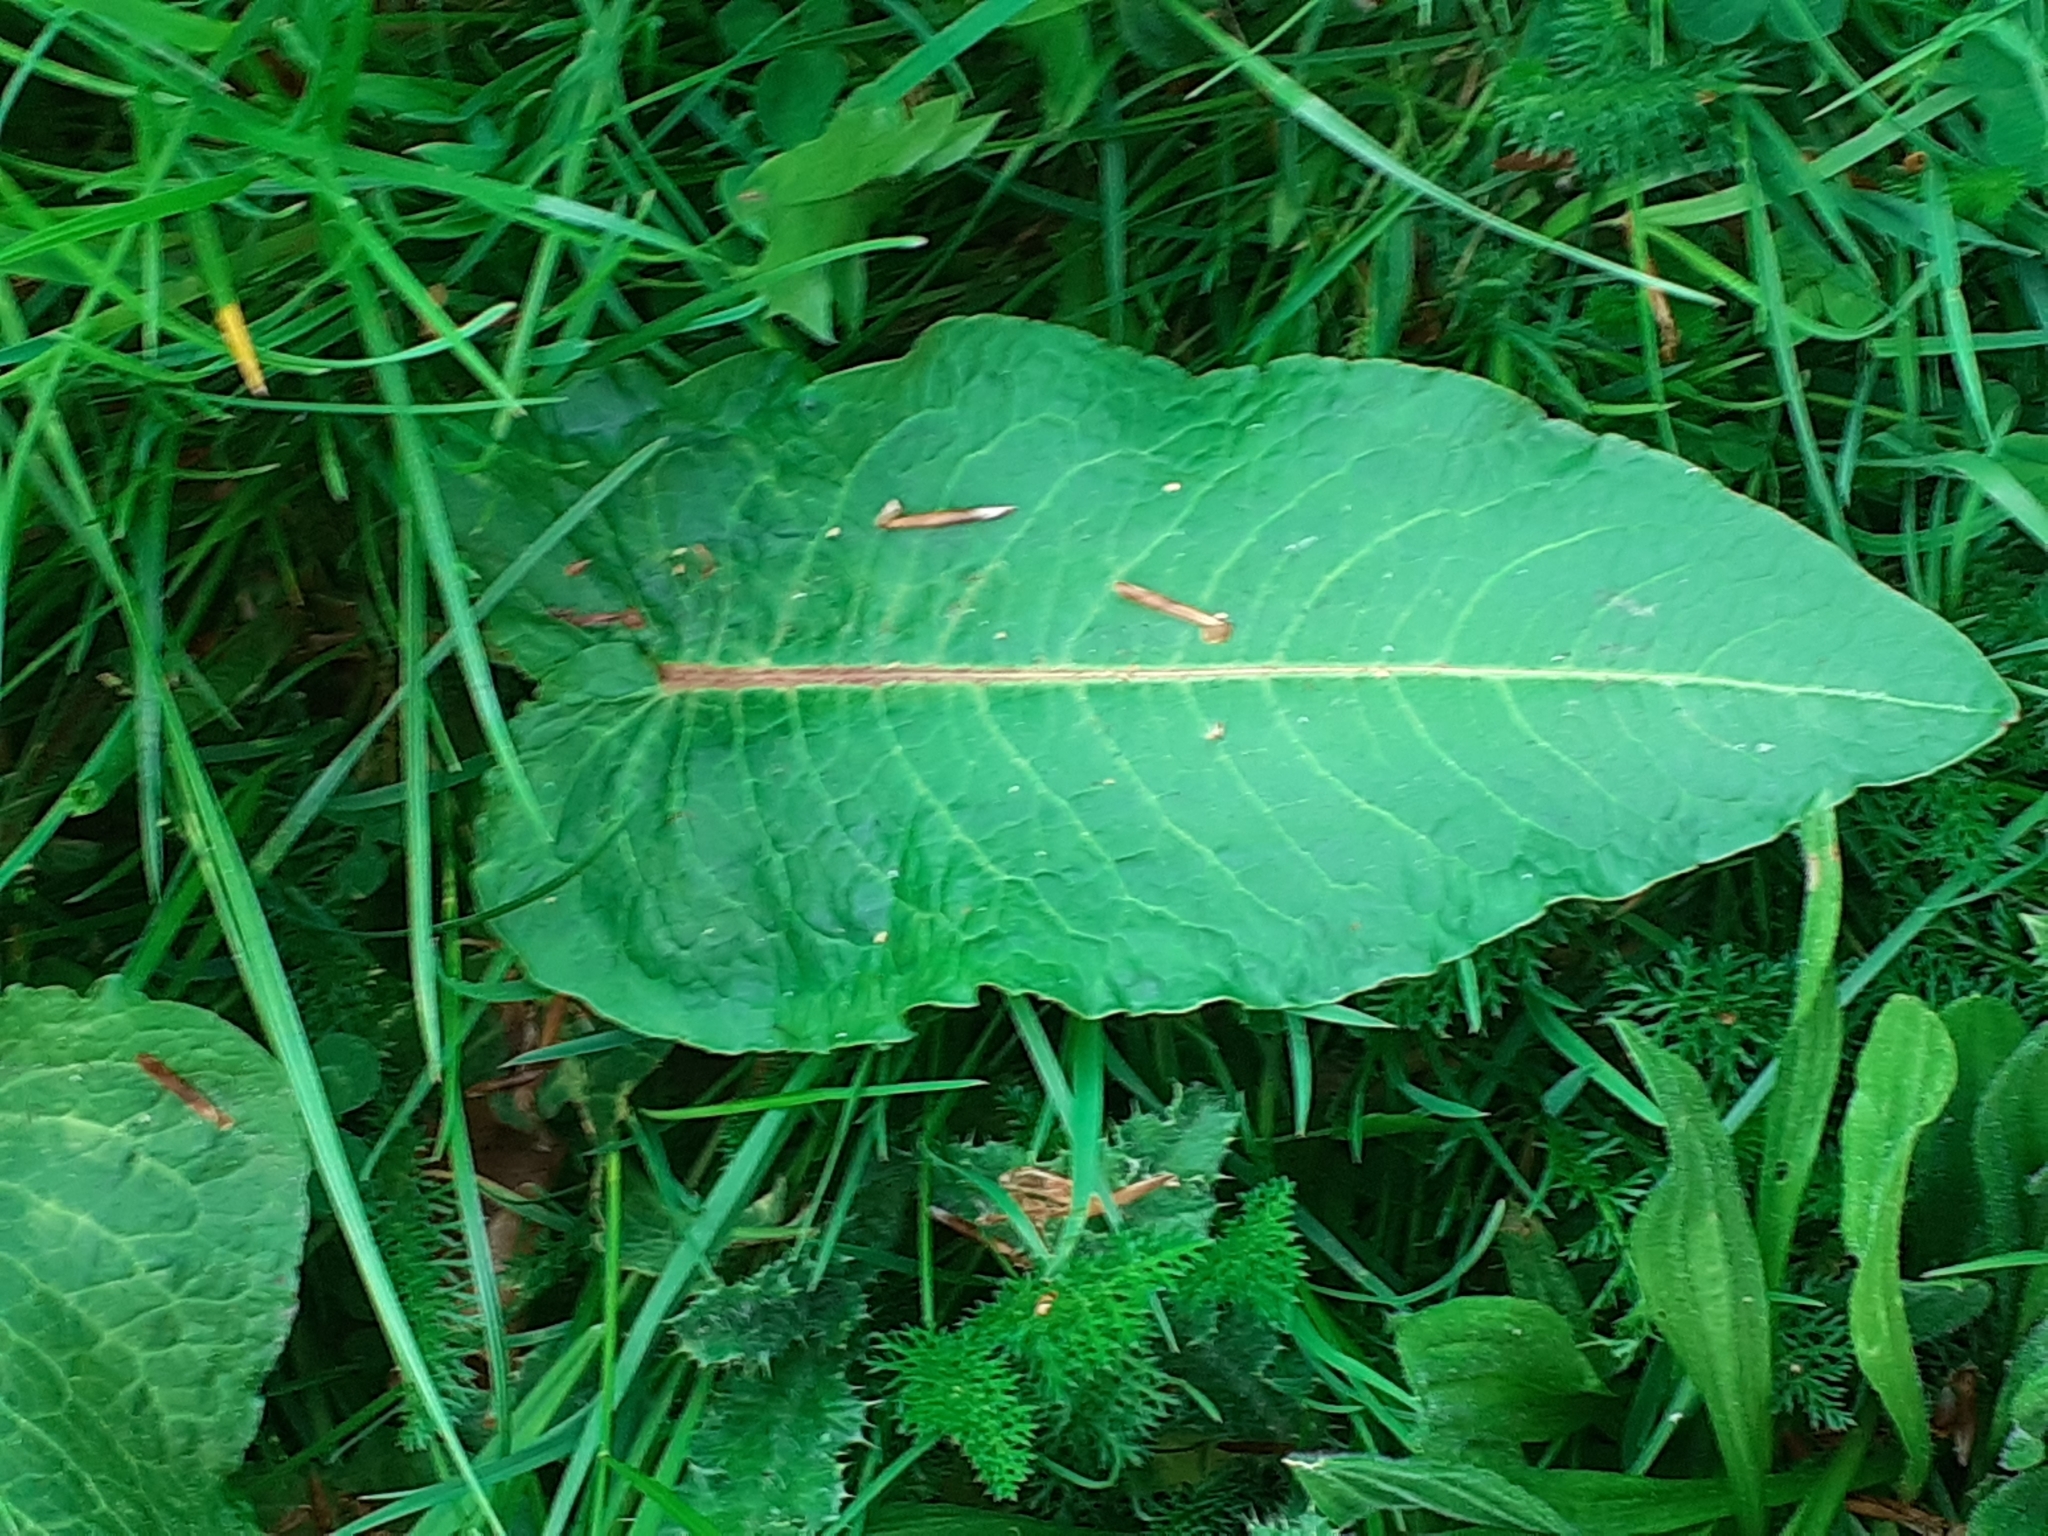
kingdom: Plantae
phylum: Tracheophyta
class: Magnoliopsida
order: Caryophyllales
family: Polygonaceae
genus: Rumex
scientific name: Rumex obtusifolius
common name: Bitter dock
